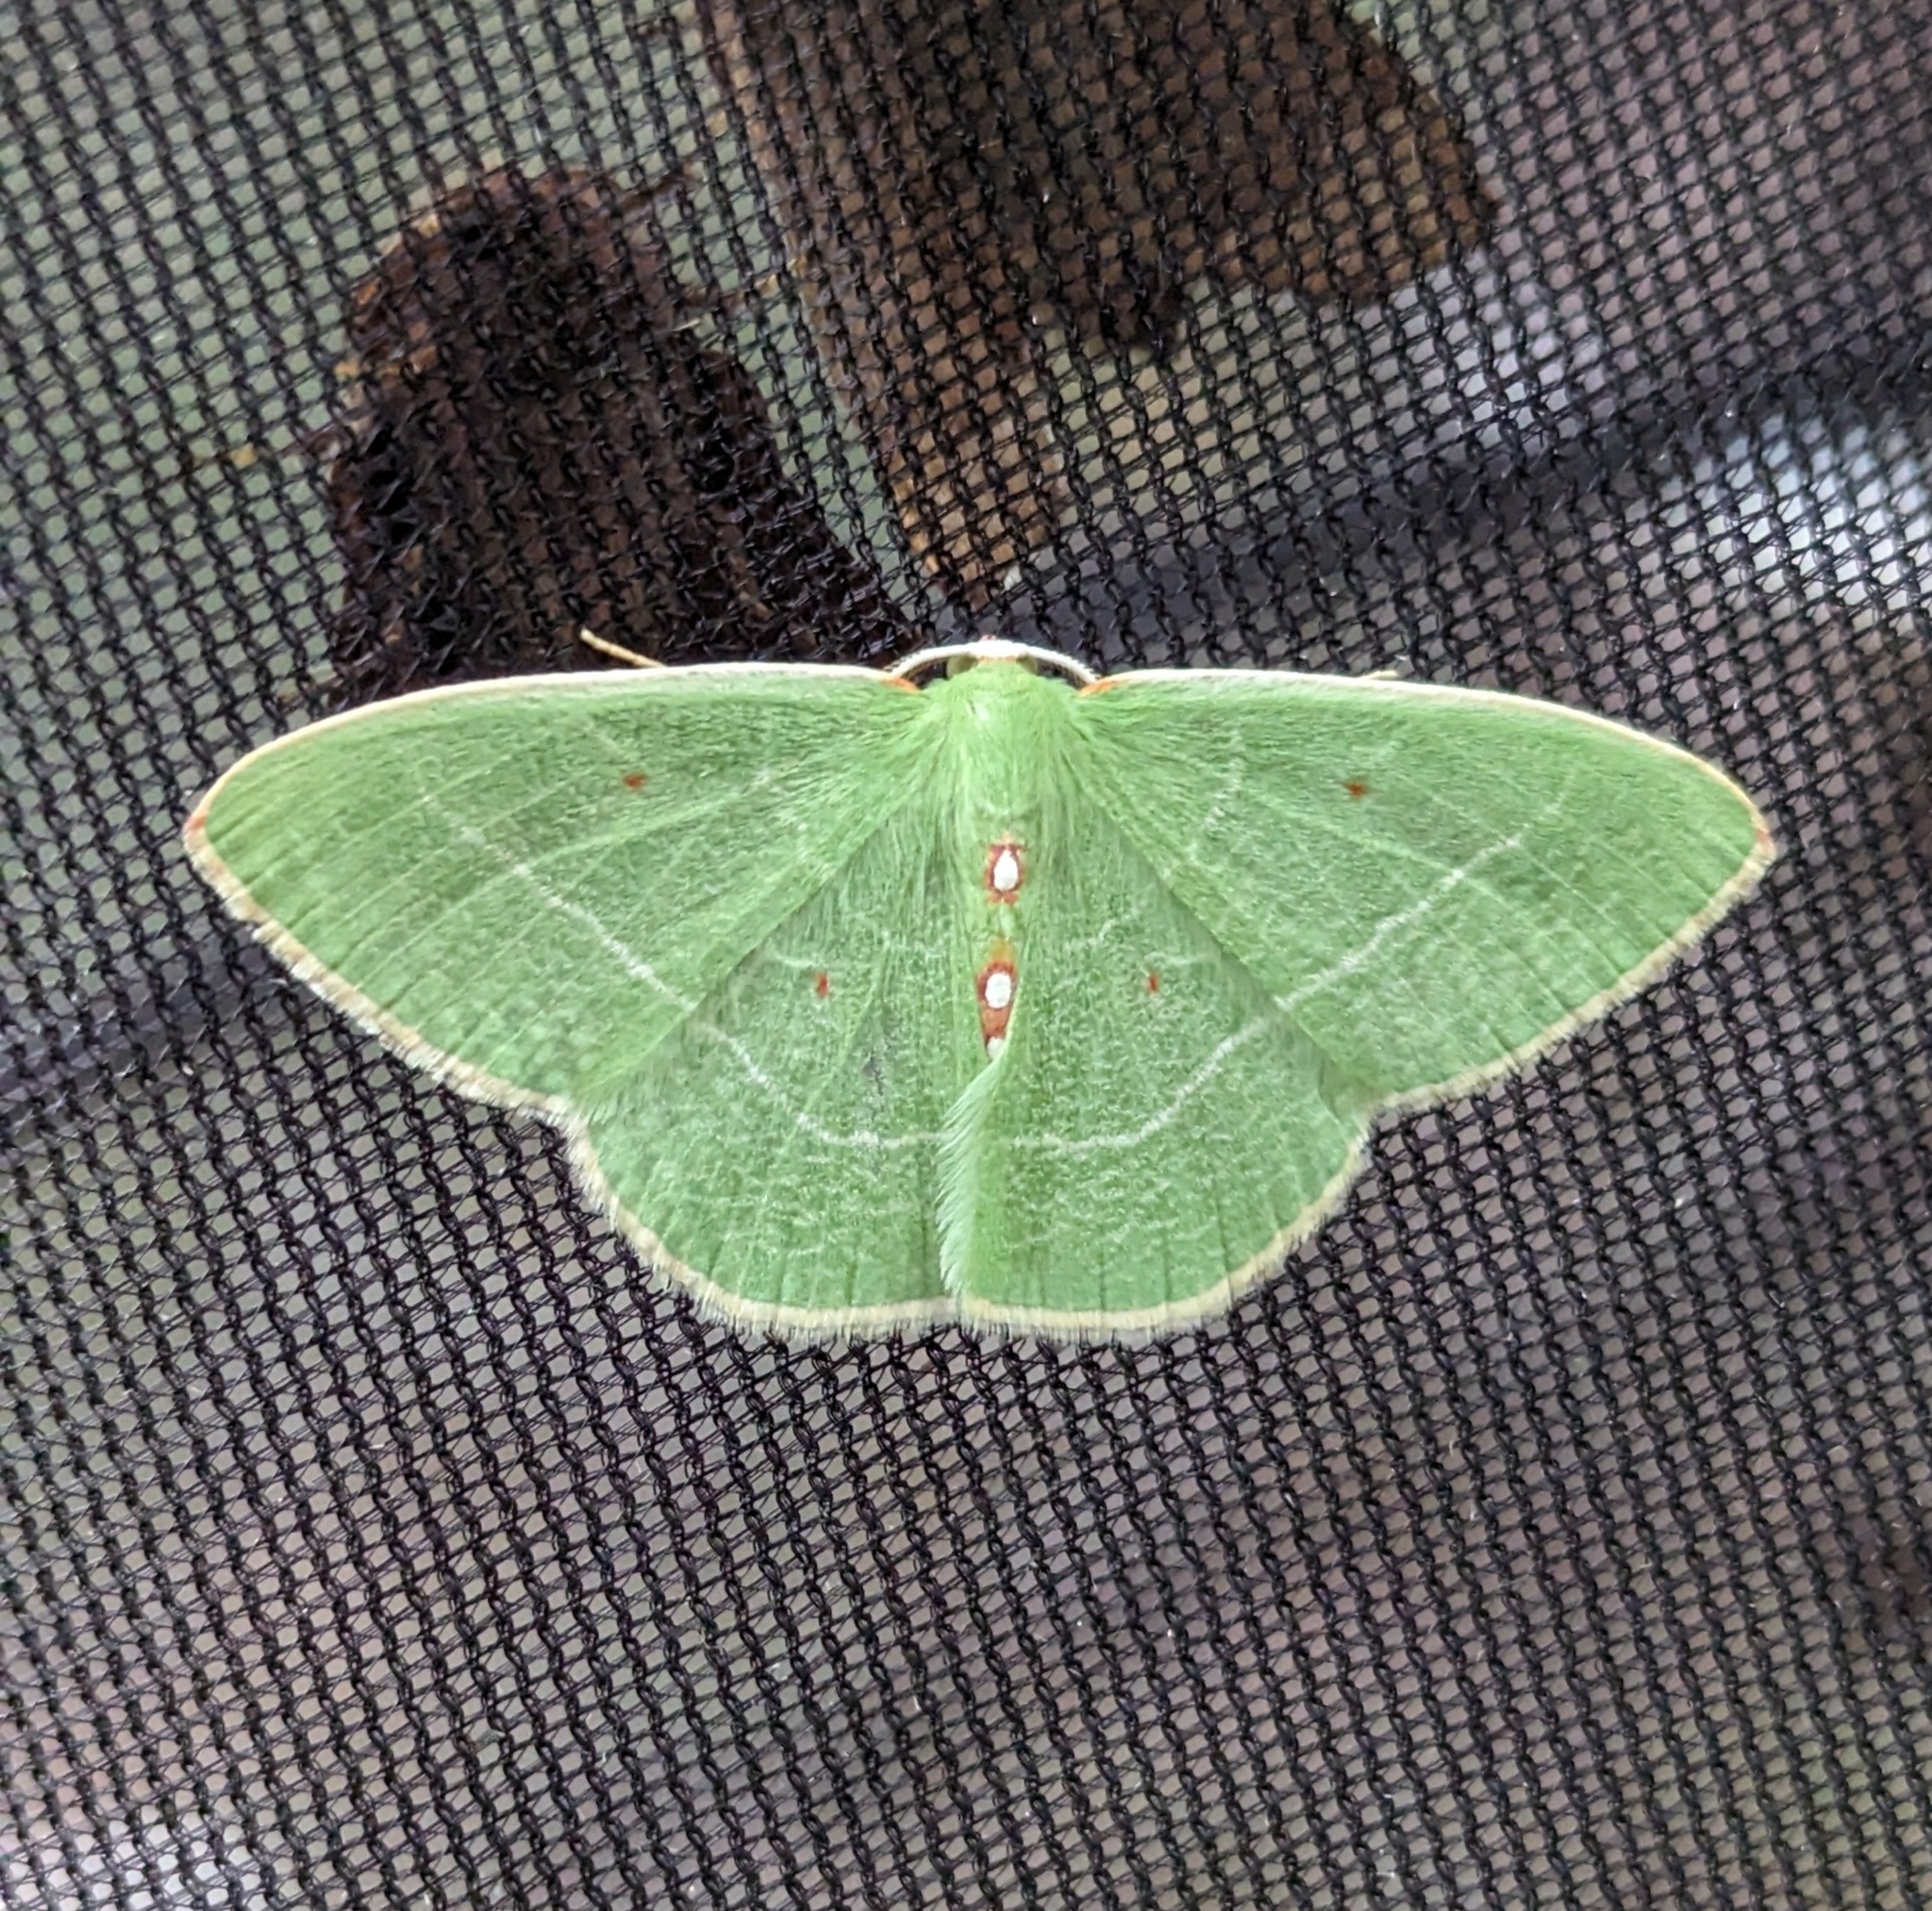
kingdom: Animalia
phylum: Arthropoda
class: Insecta
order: Lepidoptera
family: Geometridae
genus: Nemoria
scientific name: Nemoria darwiniata
